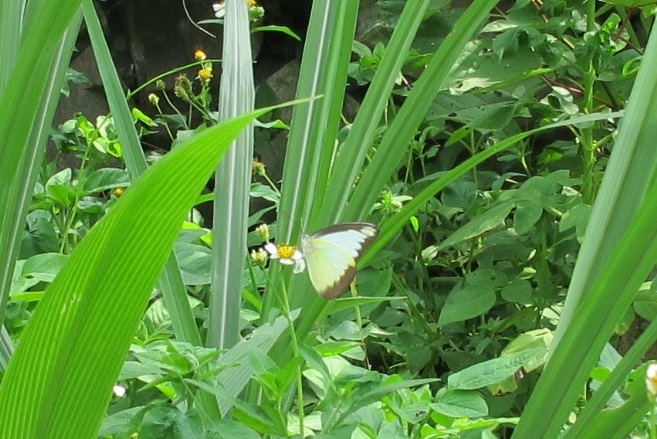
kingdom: Animalia
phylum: Arthropoda
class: Insecta
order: Lepidoptera
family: Pieridae
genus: Appias
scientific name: Appias lyncida
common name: Chocolate albatross
